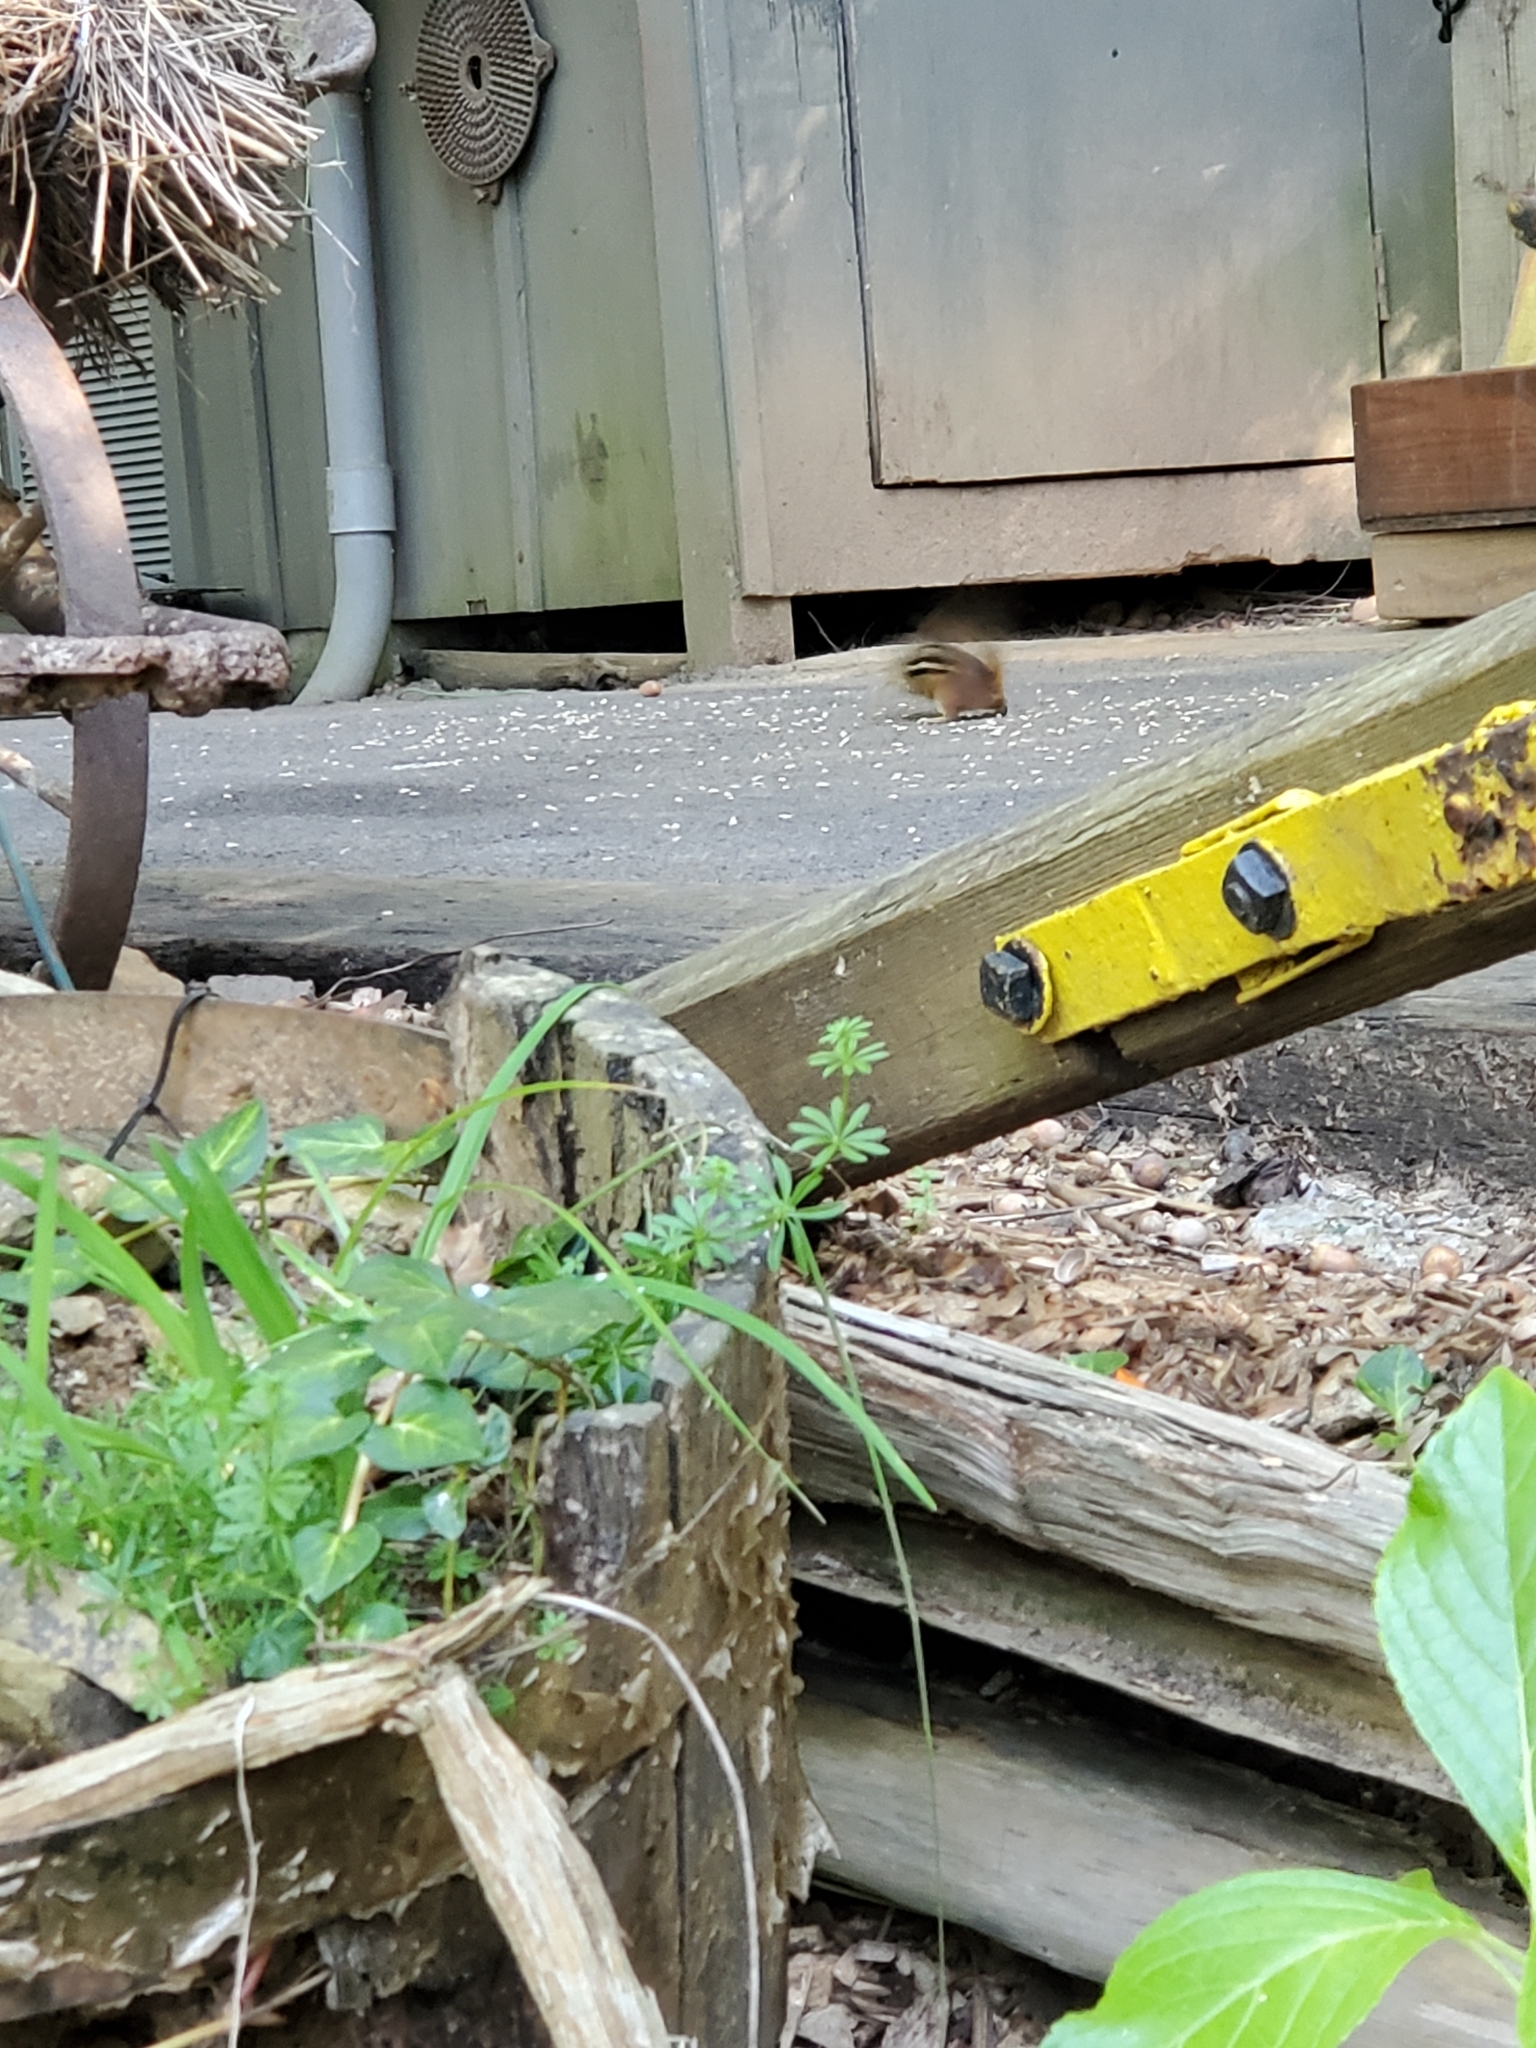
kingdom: Animalia
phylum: Chordata
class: Mammalia
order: Rodentia
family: Sciuridae
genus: Tamias
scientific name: Tamias striatus
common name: Eastern chipmunk
